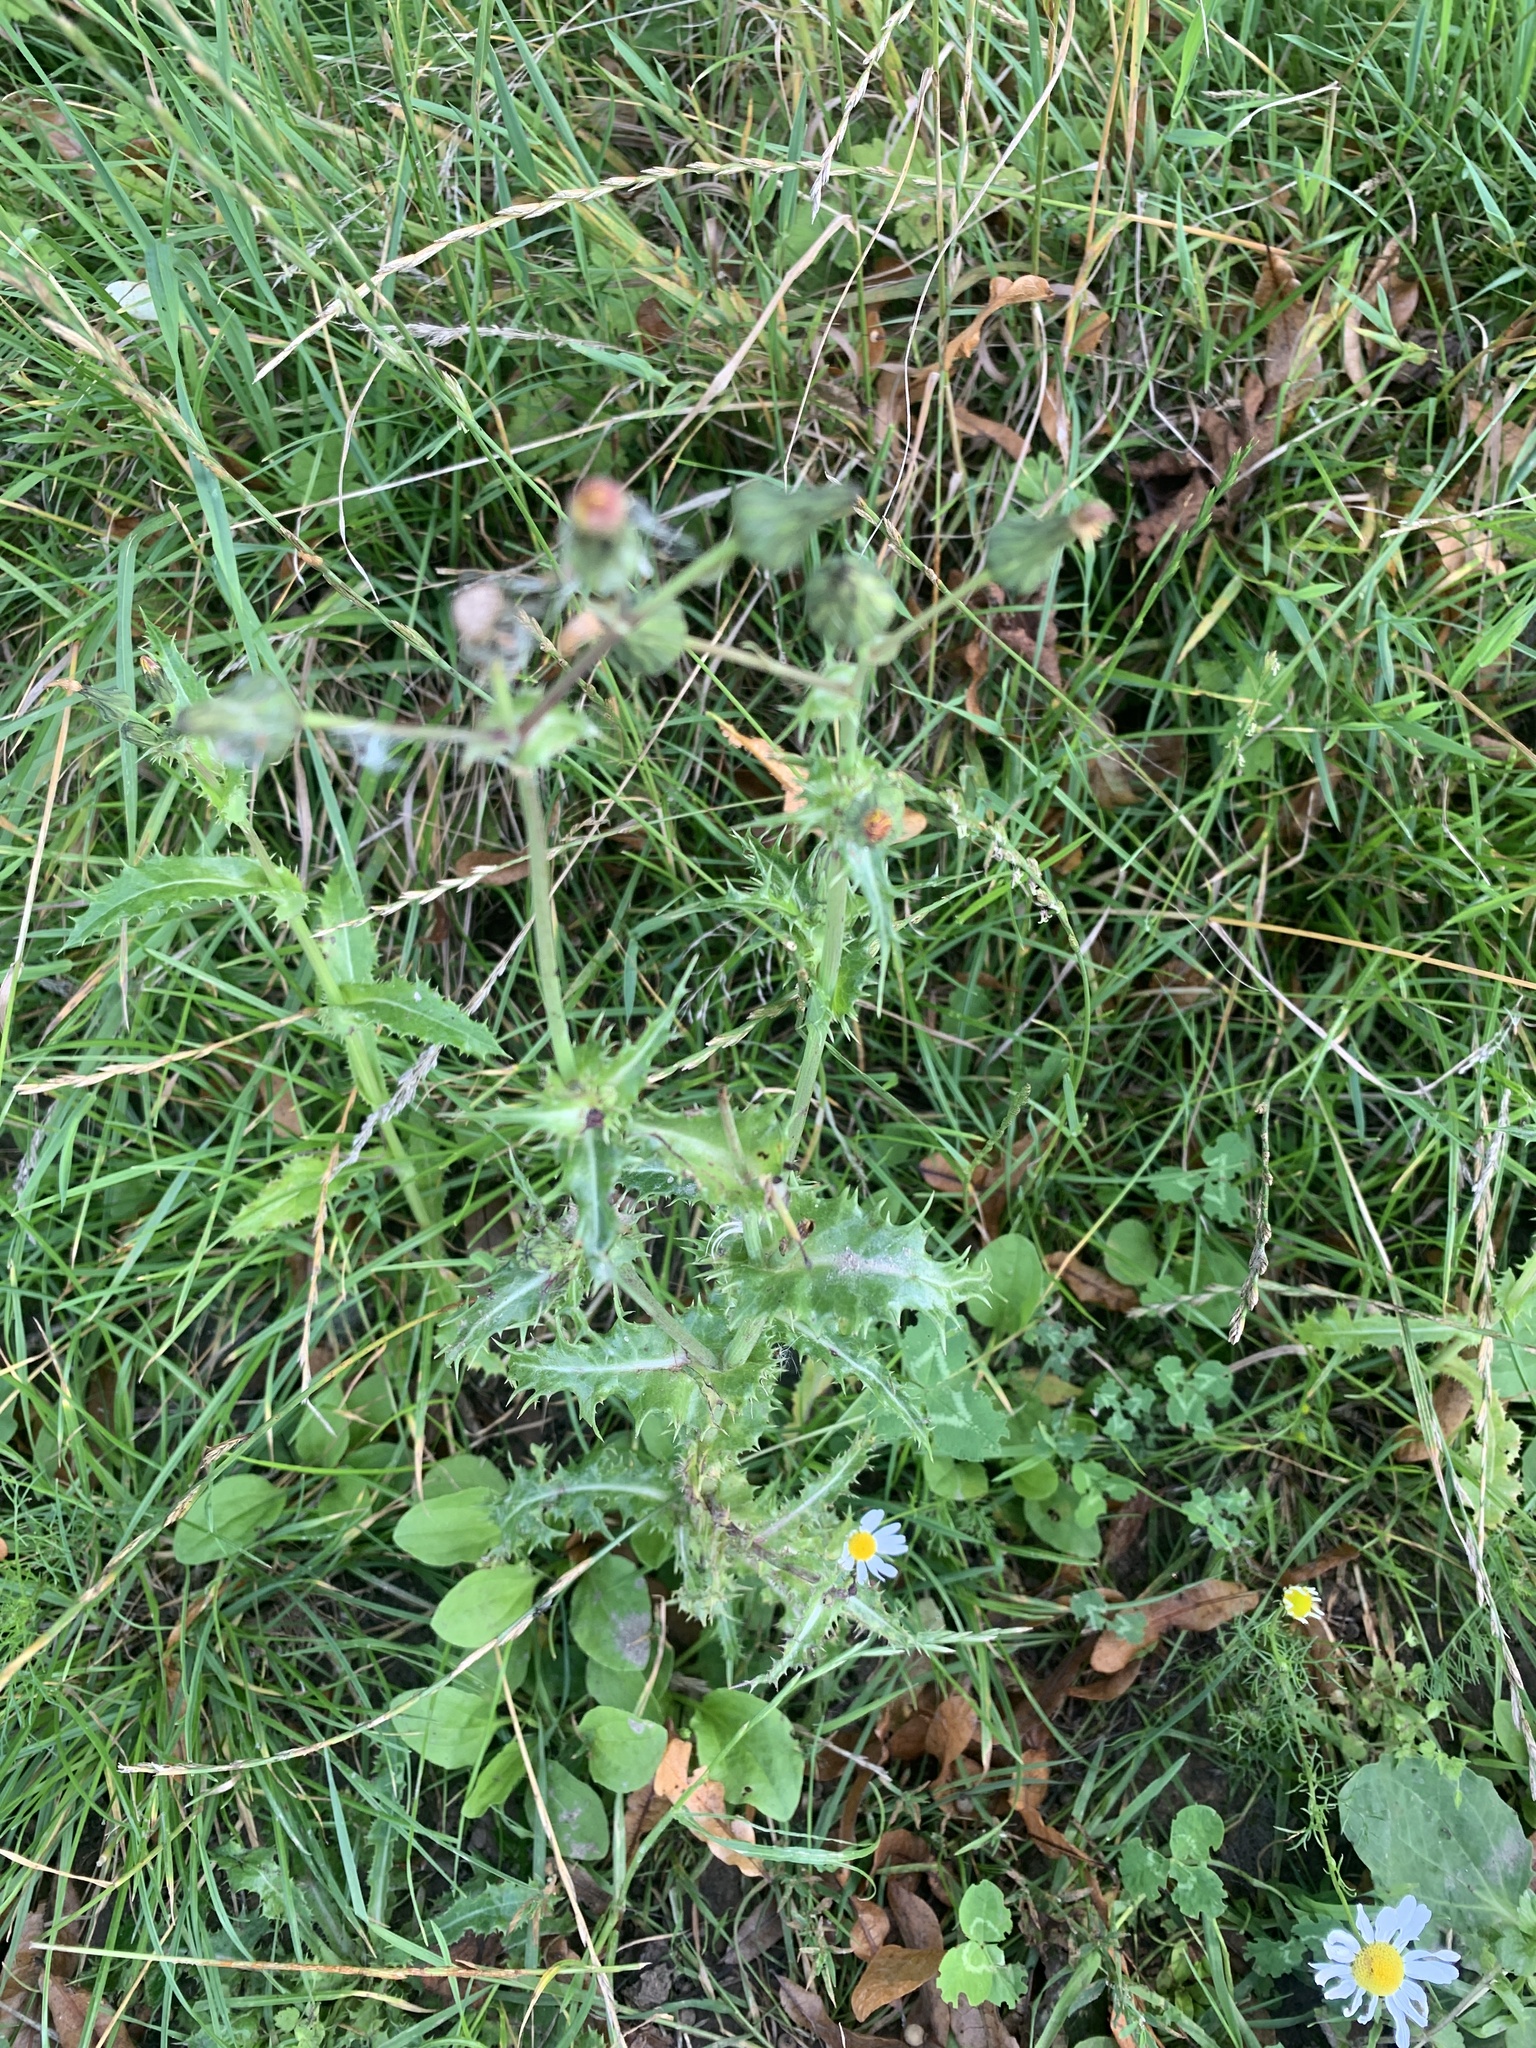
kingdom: Plantae
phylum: Tracheophyta
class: Magnoliopsida
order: Asterales
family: Asteraceae
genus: Sonchus
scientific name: Sonchus oleraceus
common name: Common sowthistle
